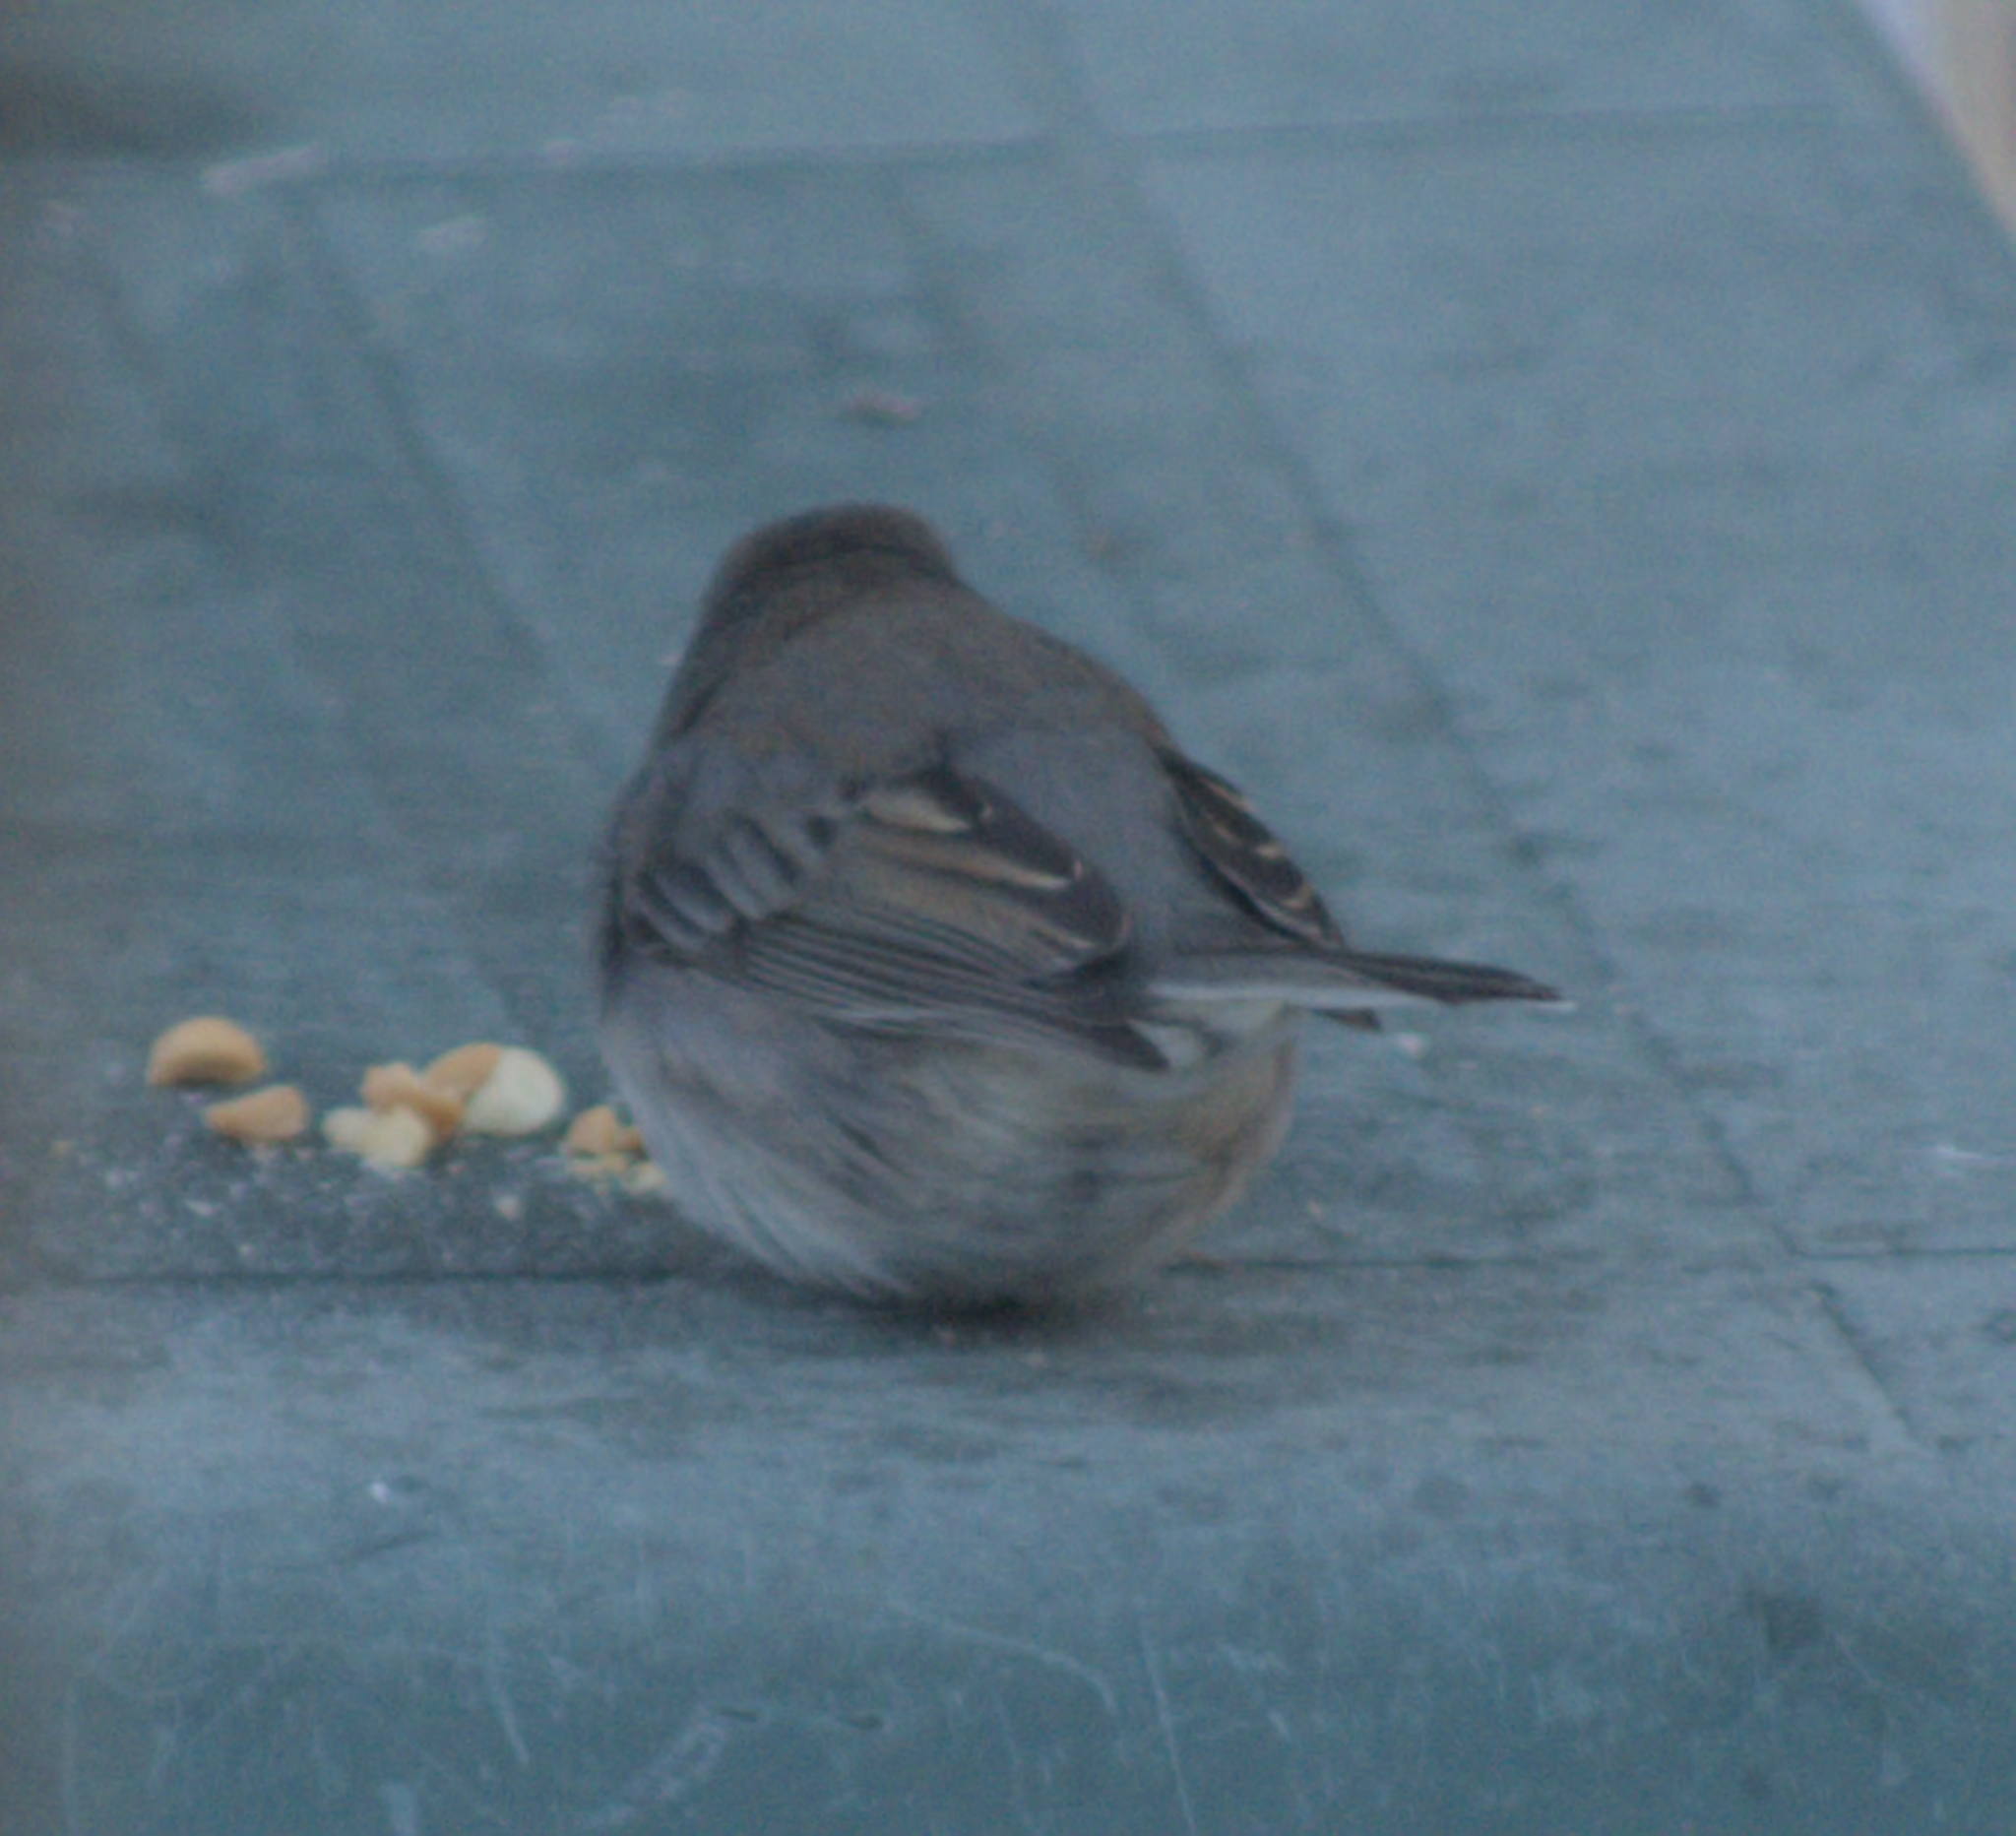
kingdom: Animalia
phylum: Chordata
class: Aves
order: Passeriformes
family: Passerellidae
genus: Junco
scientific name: Junco hyemalis
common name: Dark-eyed junco
